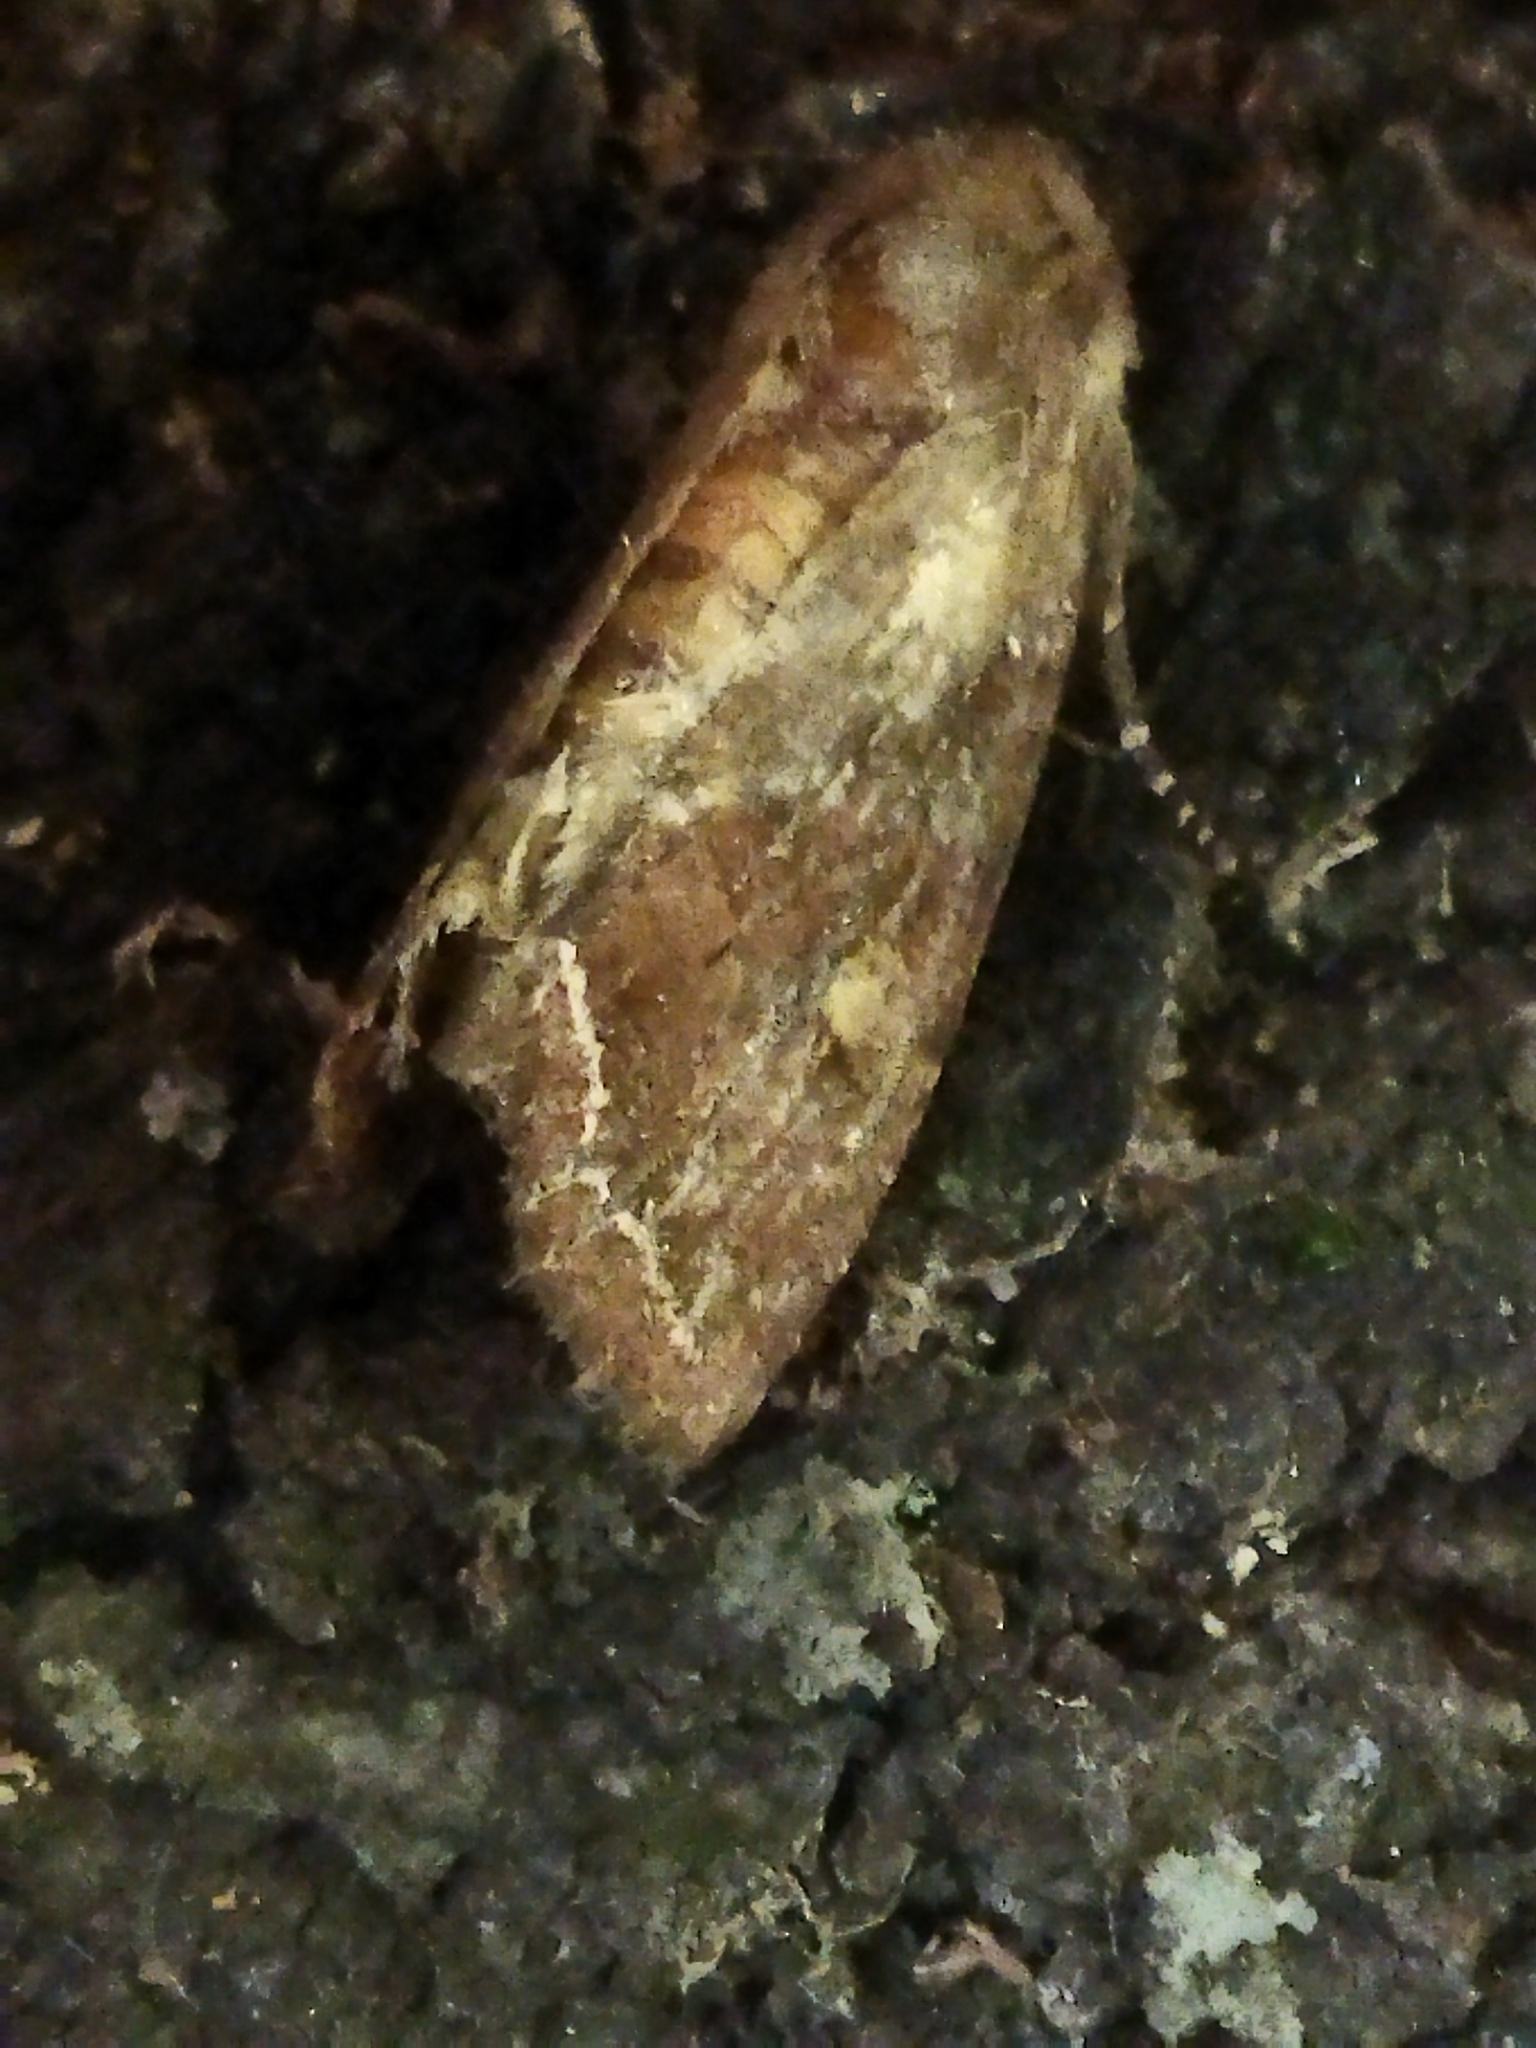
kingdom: Animalia
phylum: Arthropoda
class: Insecta
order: Lepidoptera
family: Noctuidae
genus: Lacanobia
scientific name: Lacanobia oleracea
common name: Bright-line brown-eye
